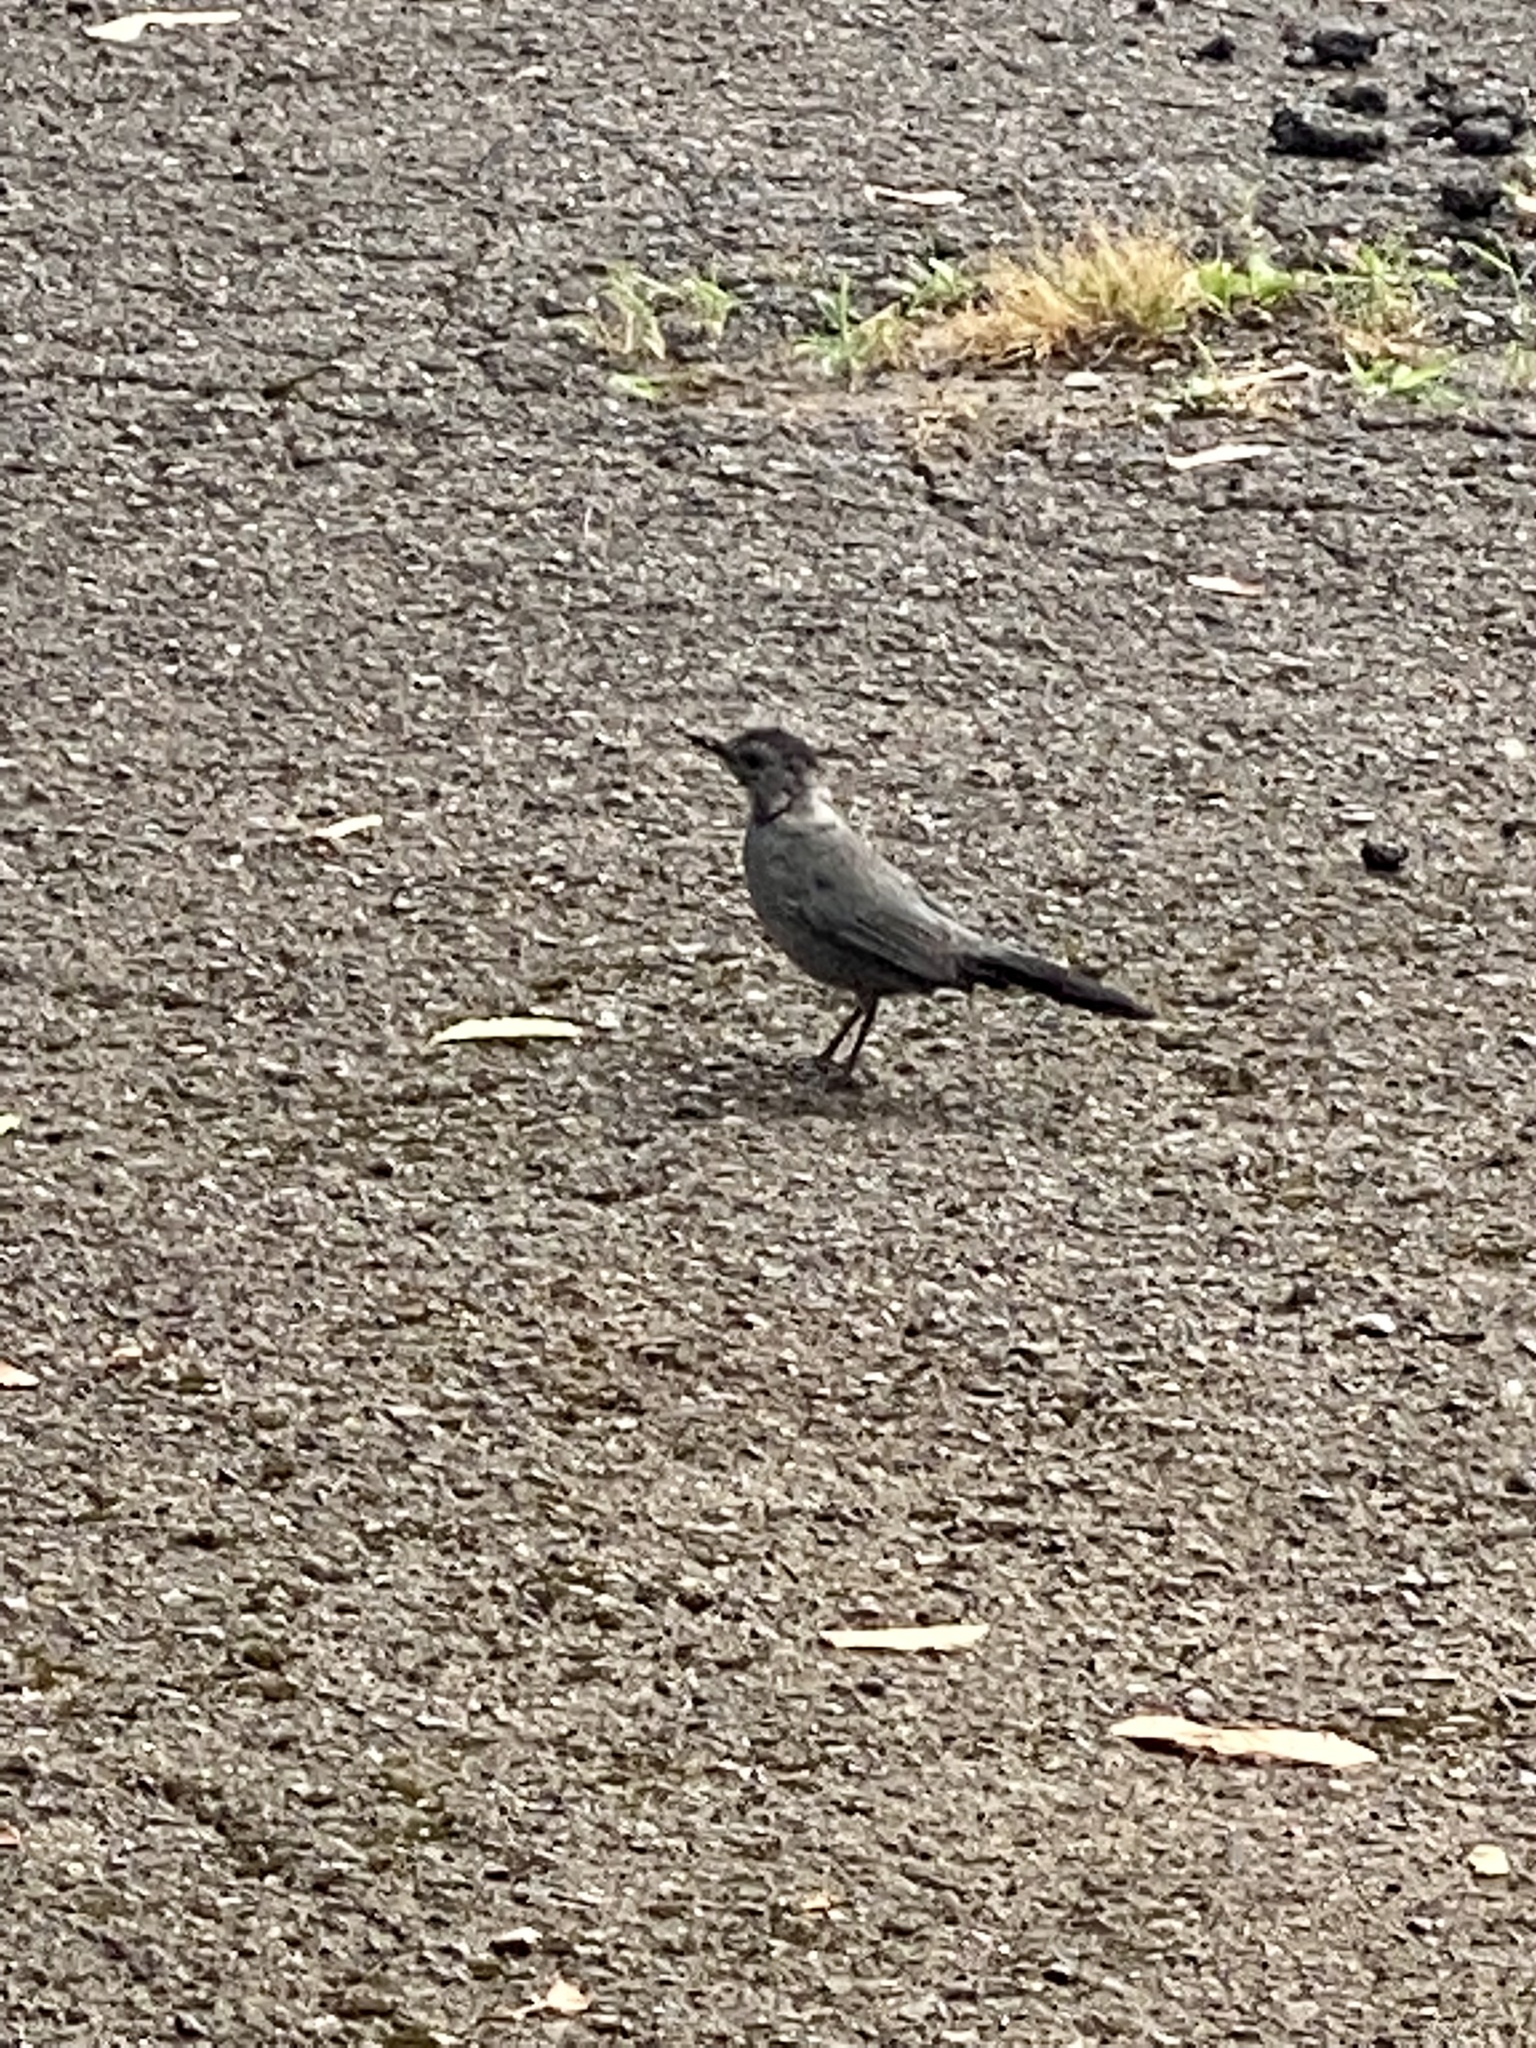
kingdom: Animalia
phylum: Chordata
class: Aves
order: Passeriformes
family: Mimidae
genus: Dumetella
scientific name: Dumetella carolinensis
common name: Gray catbird
